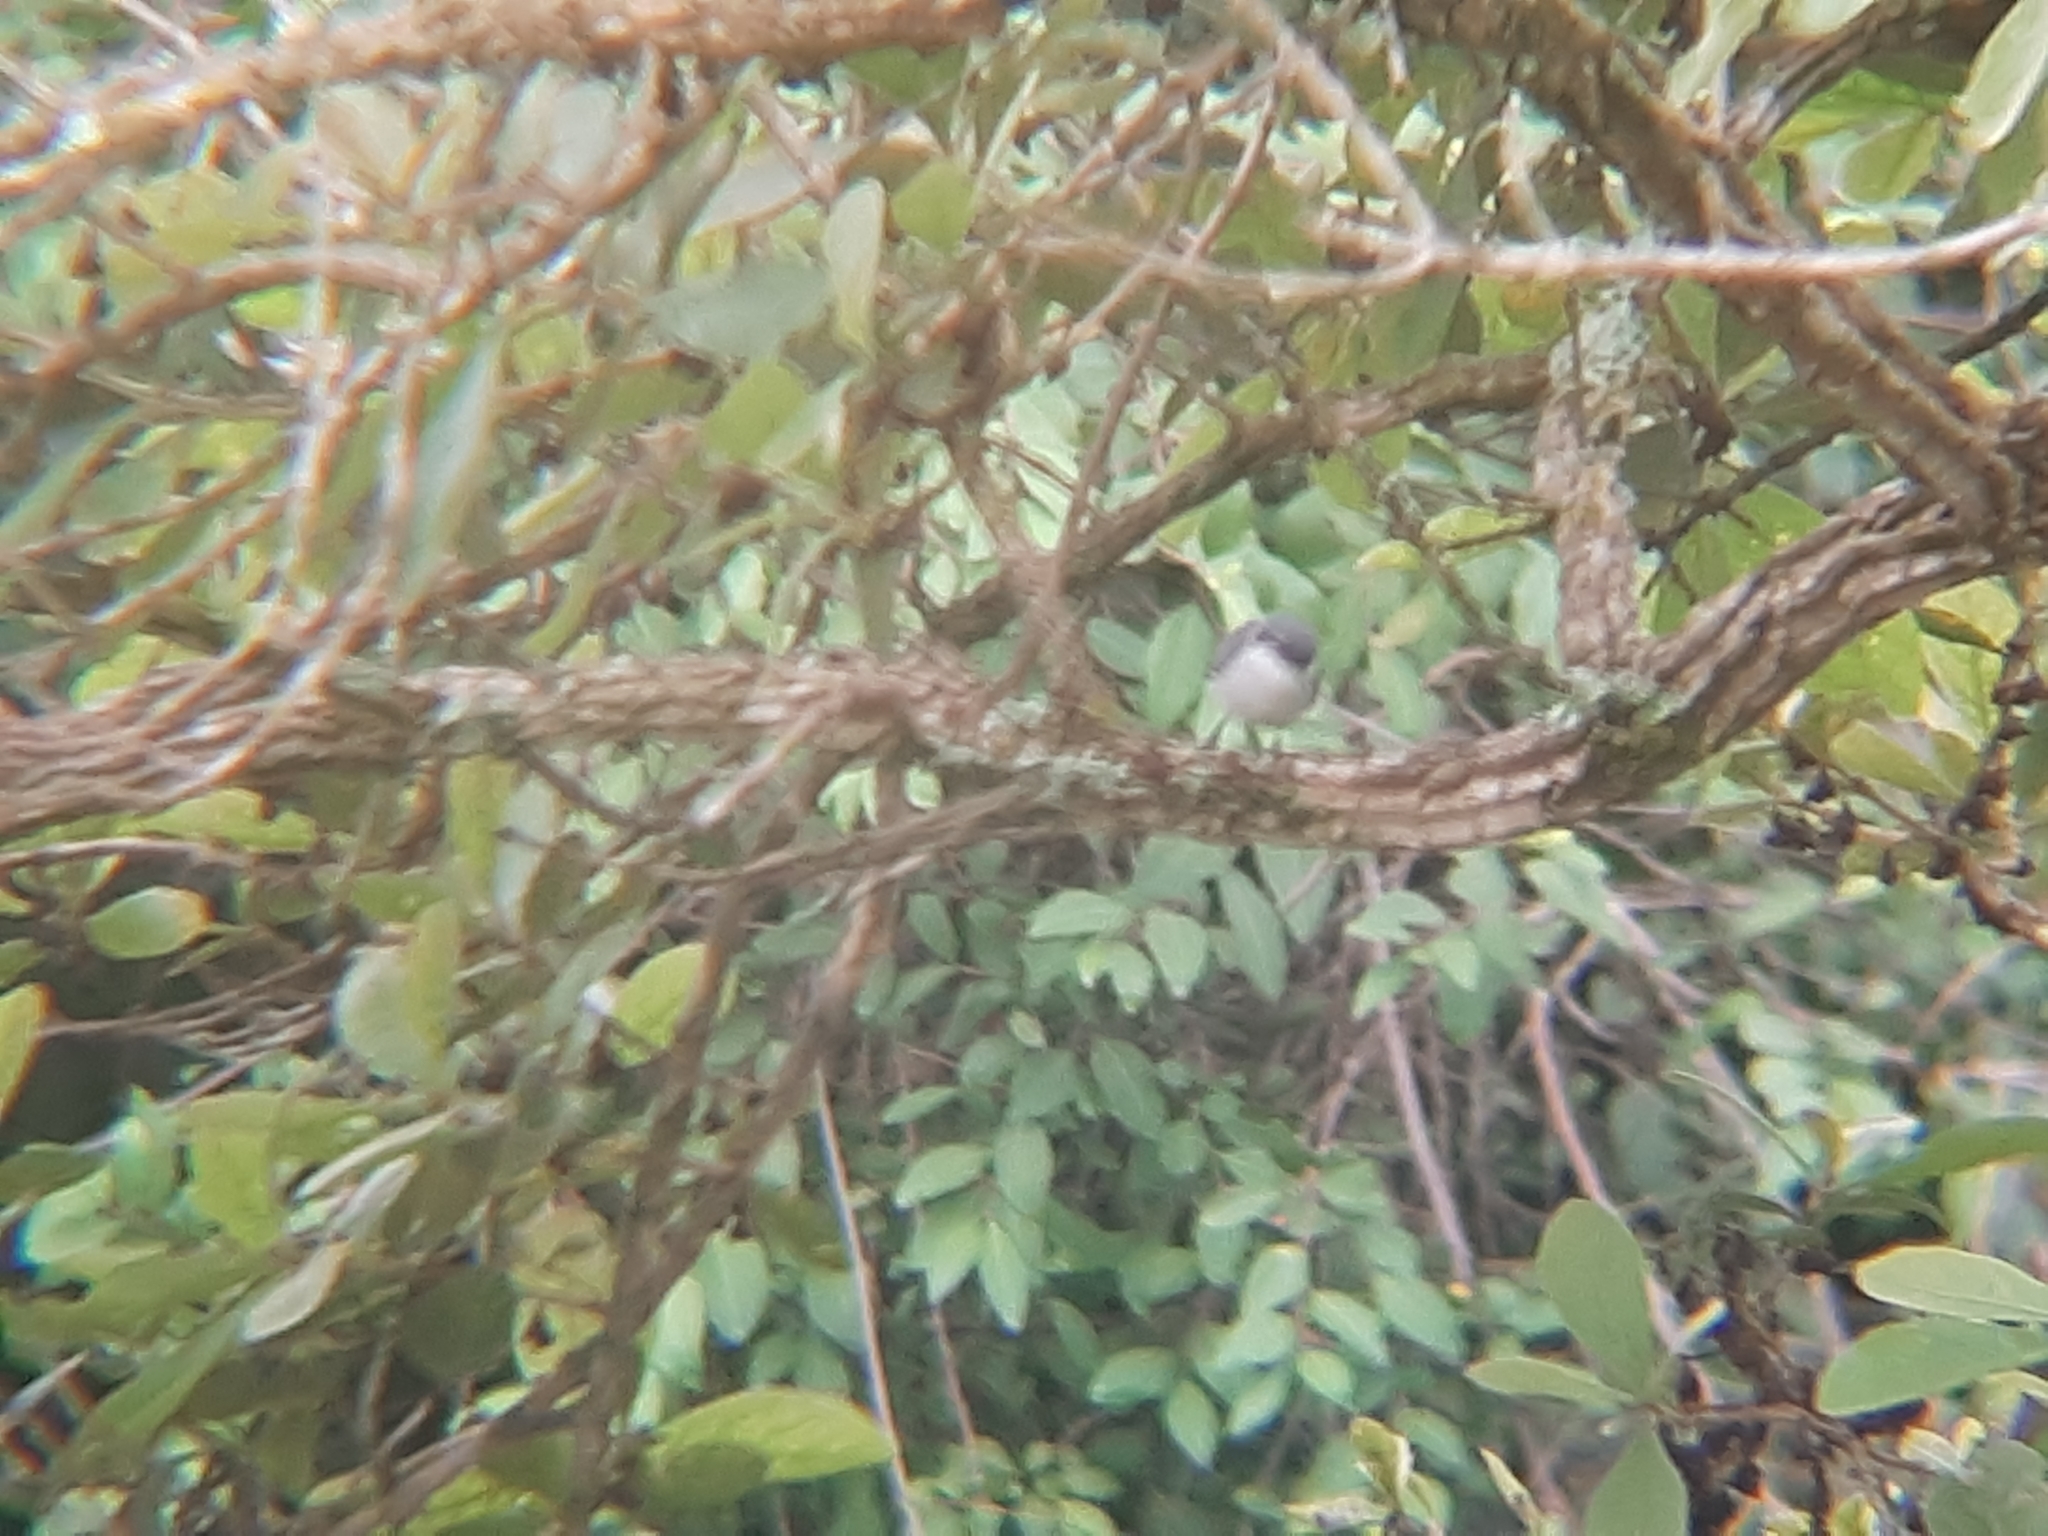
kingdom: Animalia
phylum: Chordata
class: Aves
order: Passeriformes
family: Polioptilidae
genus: Polioptila
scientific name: Polioptila dumicola
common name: Masked gnatcatcher
